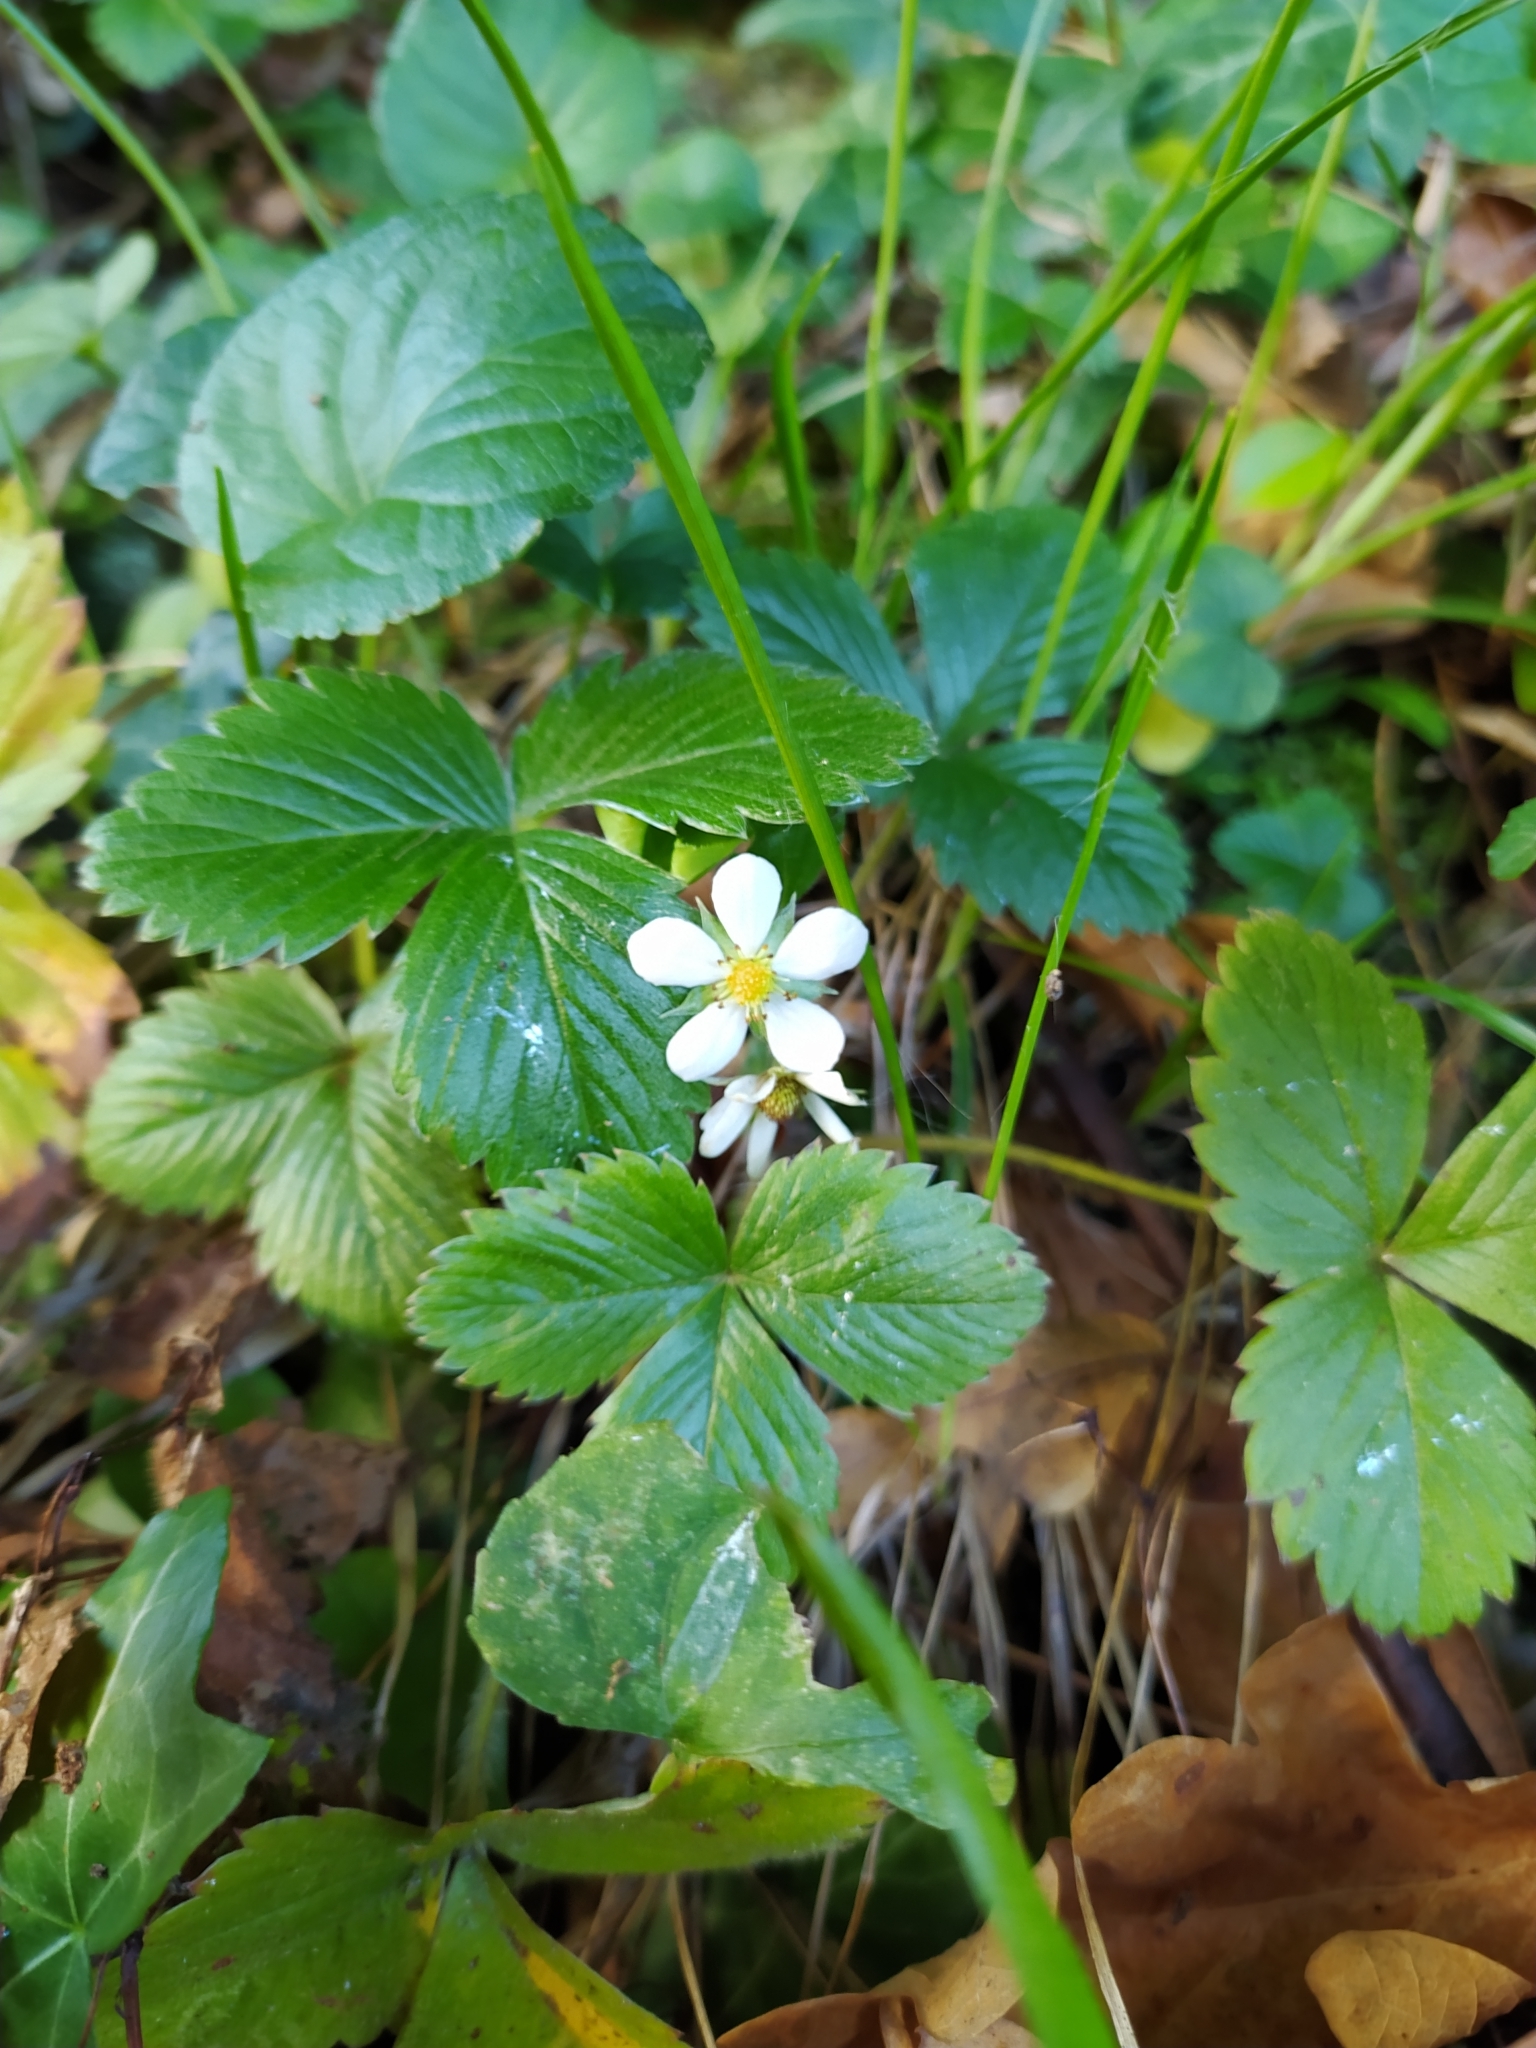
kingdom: Plantae
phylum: Tracheophyta
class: Magnoliopsida
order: Rosales
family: Rosaceae
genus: Fragaria
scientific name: Fragaria vesca
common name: Wild strawberry
